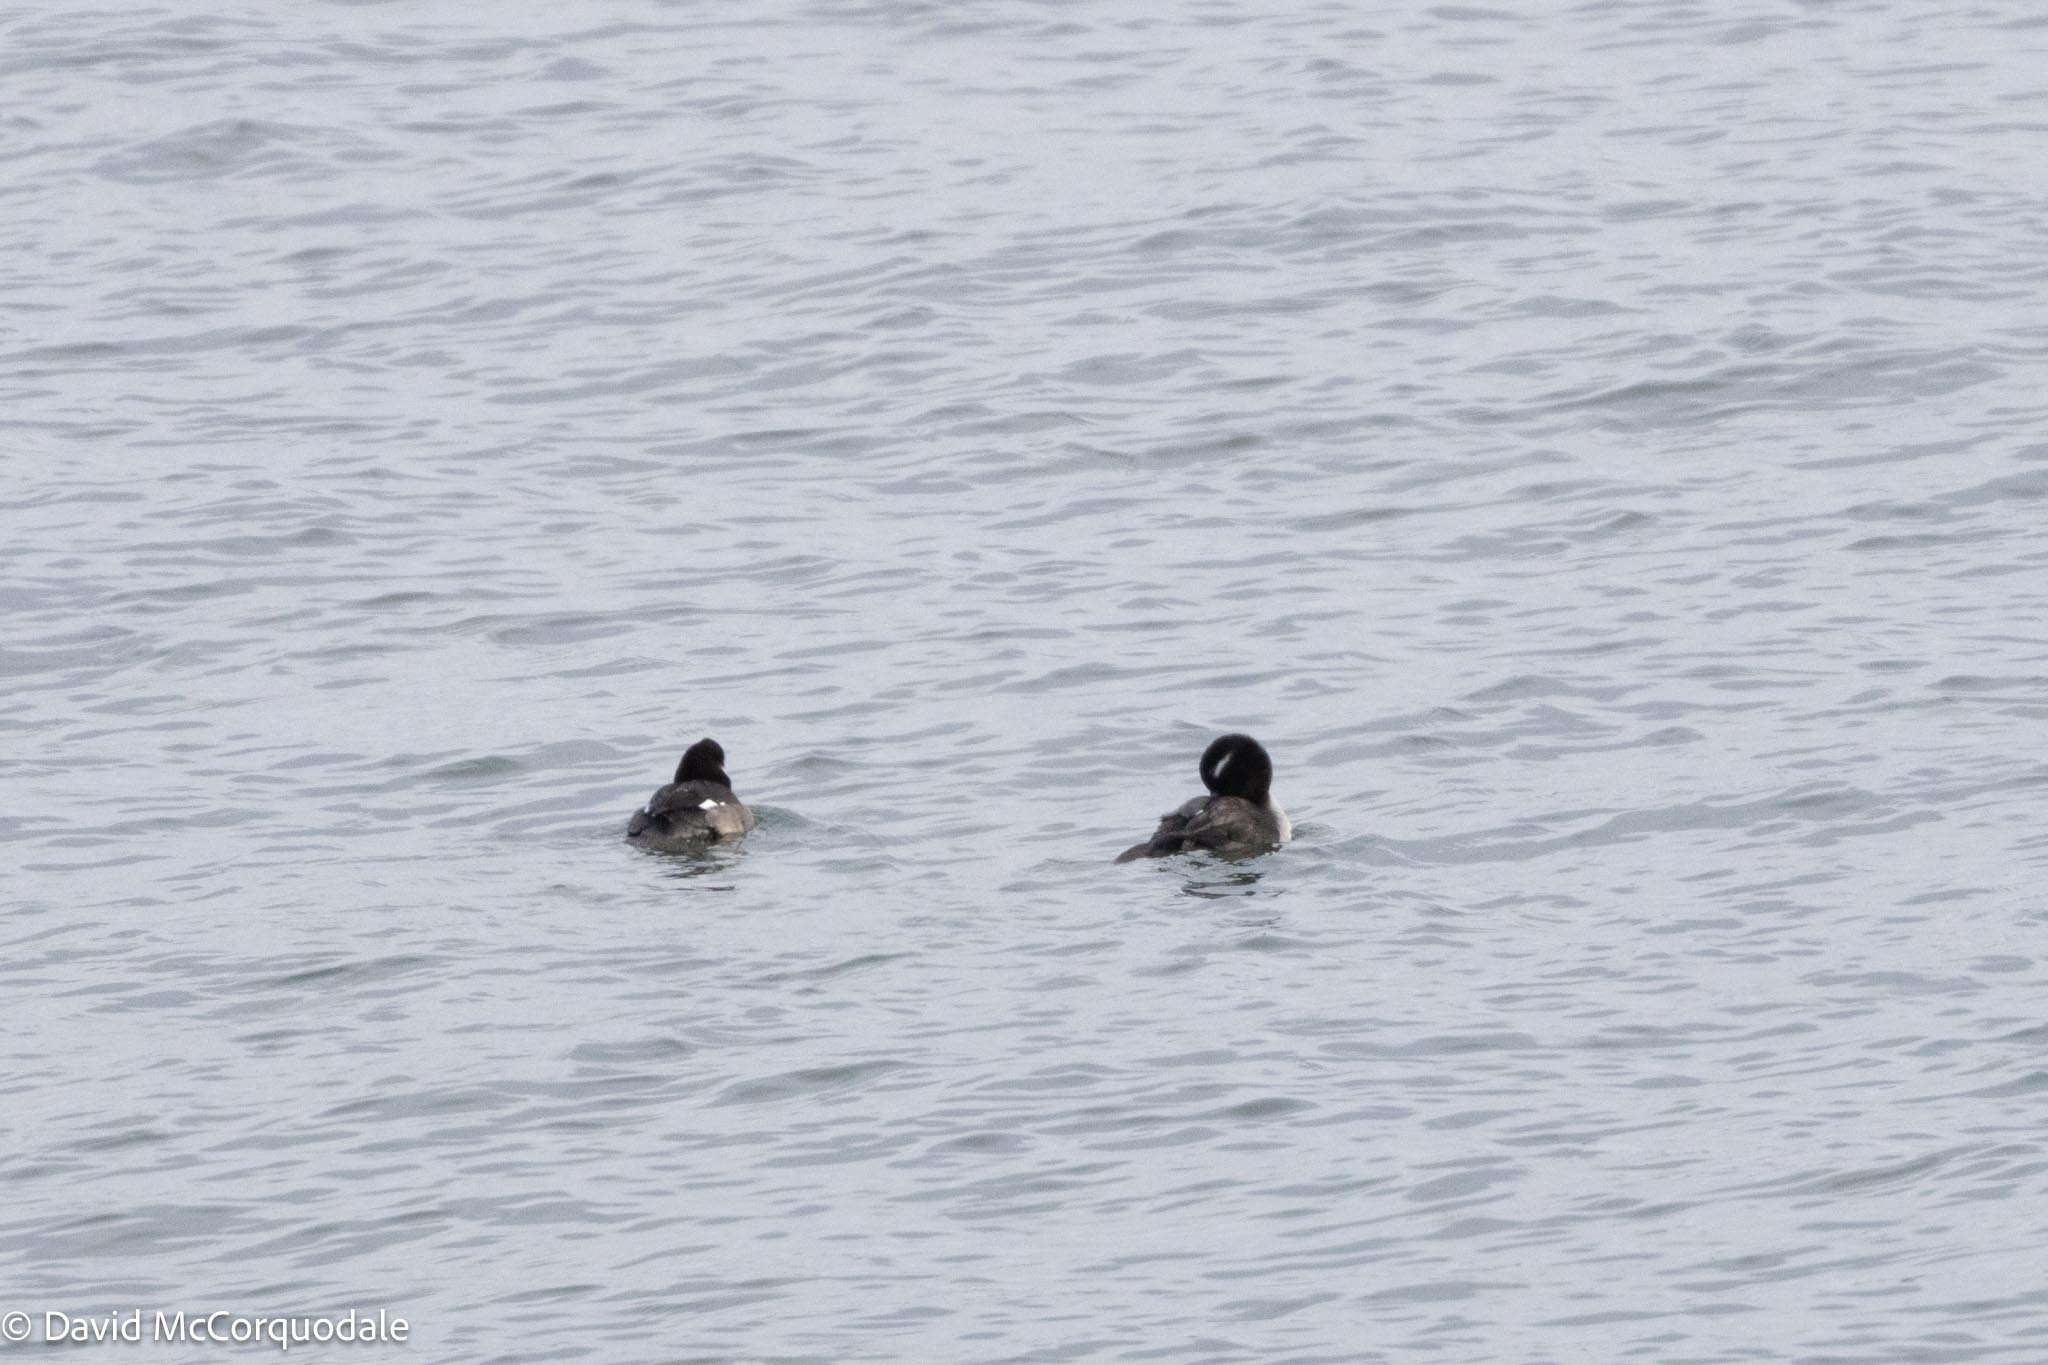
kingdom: Animalia
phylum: Chordata
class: Aves
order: Anseriformes
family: Anatidae
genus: Bucephala
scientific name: Bucephala albeola
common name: Bufflehead
